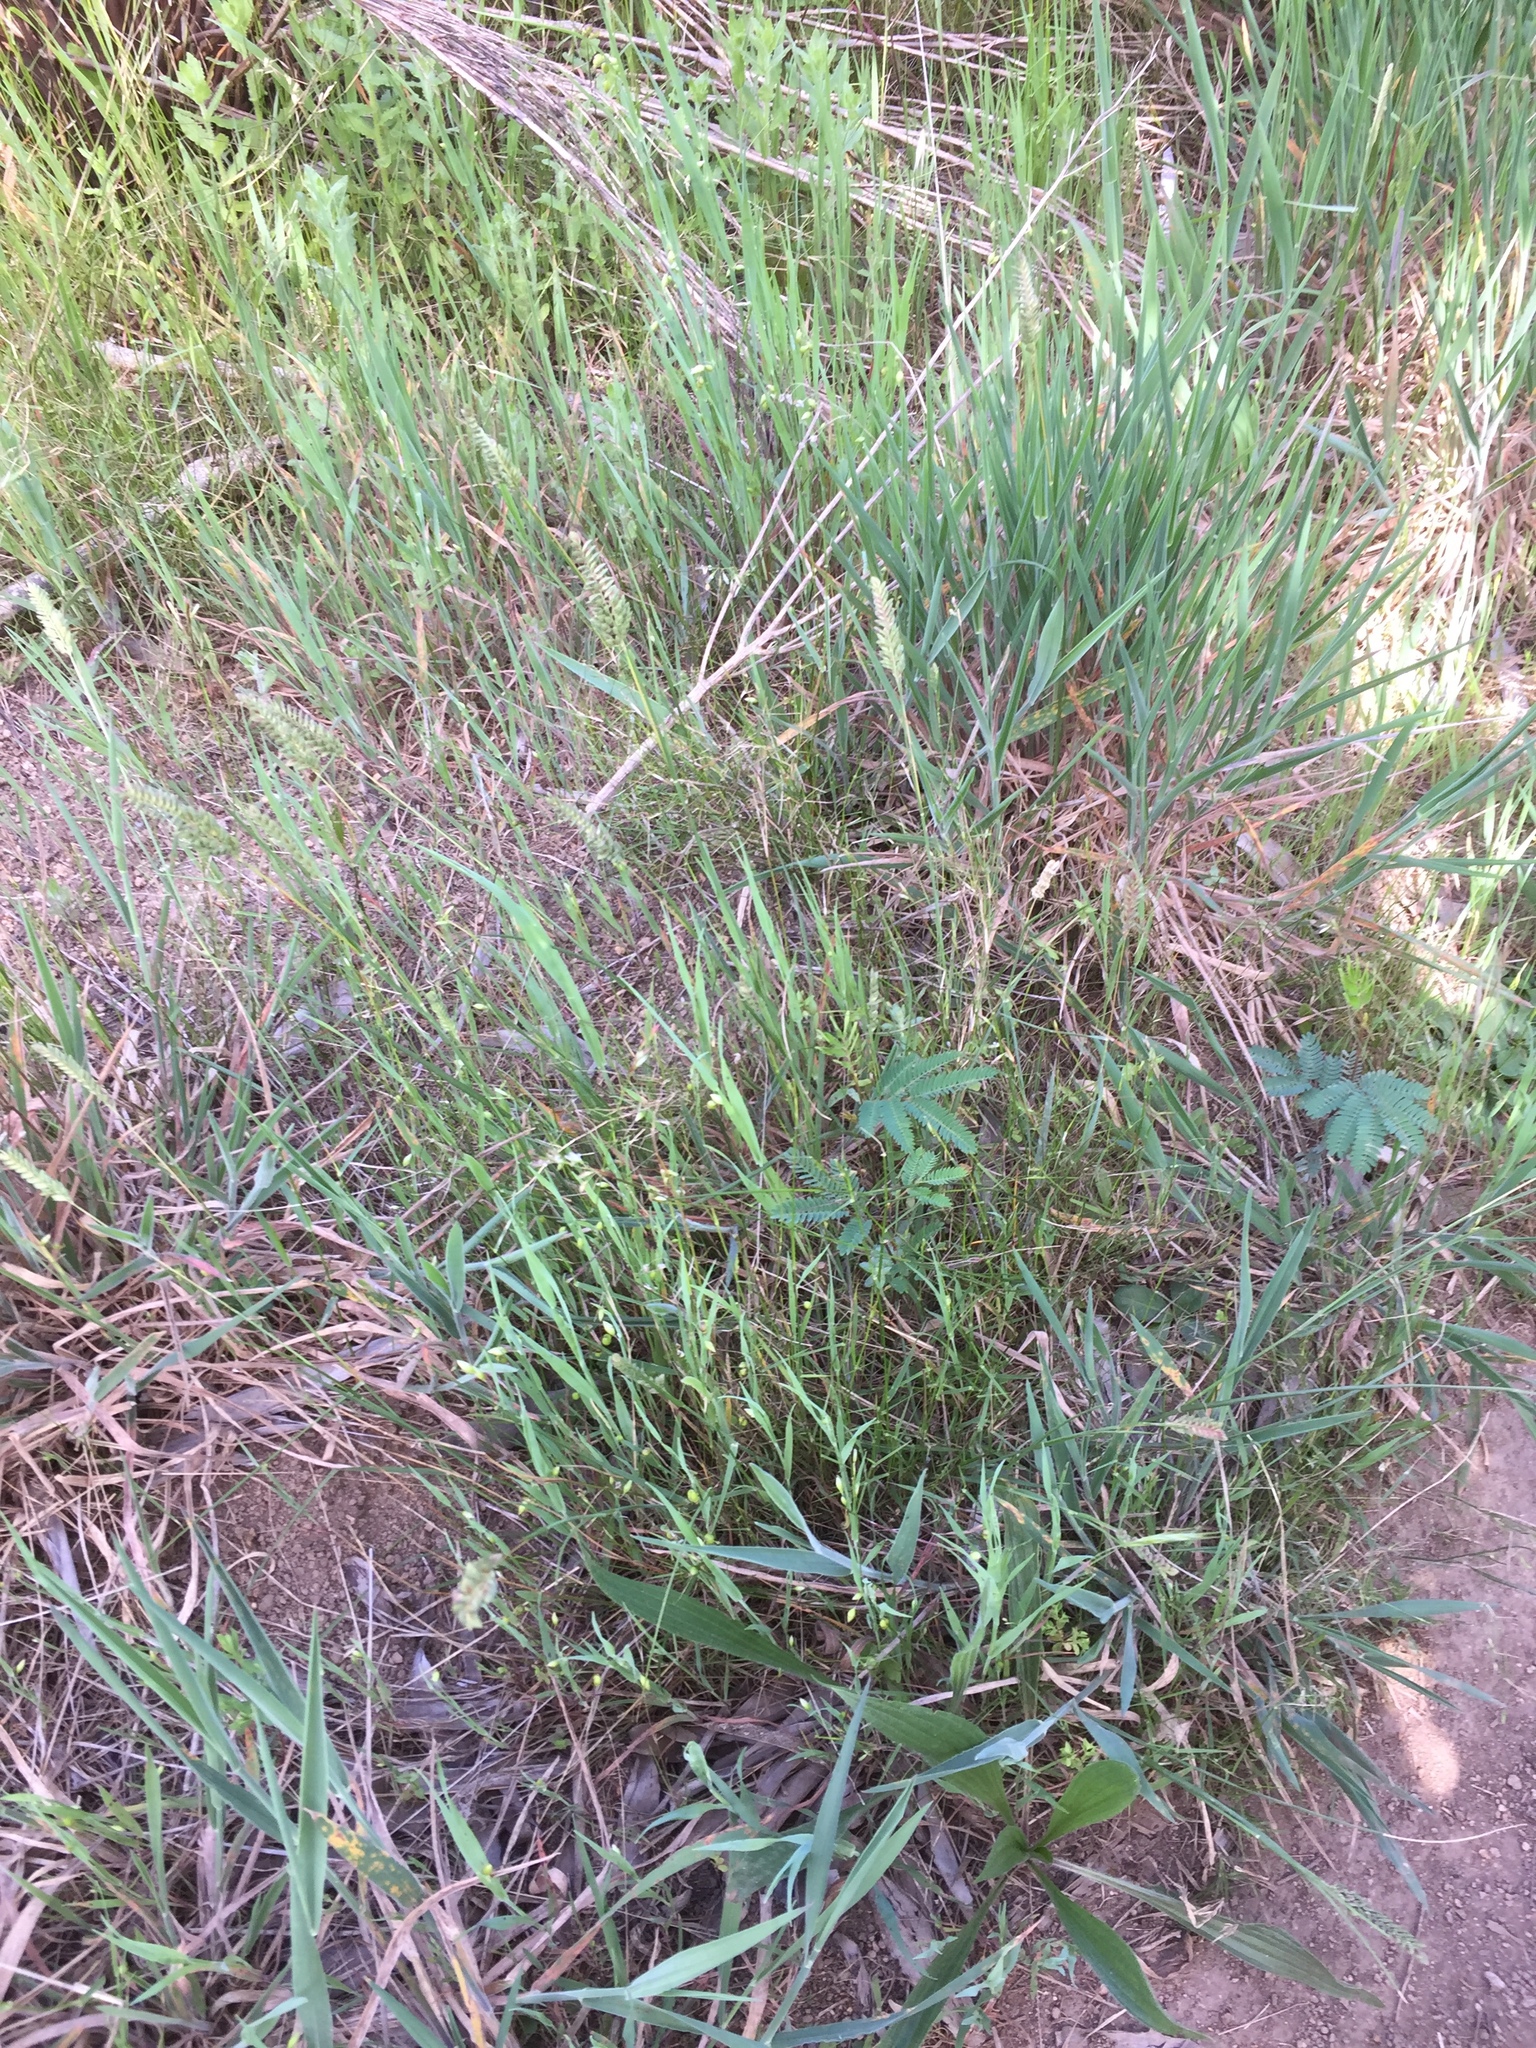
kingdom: Plantae
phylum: Tracheophyta
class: Liliopsida
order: Poales
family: Poaceae
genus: Briza
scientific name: Briza maxima
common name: Big quakinggrass
